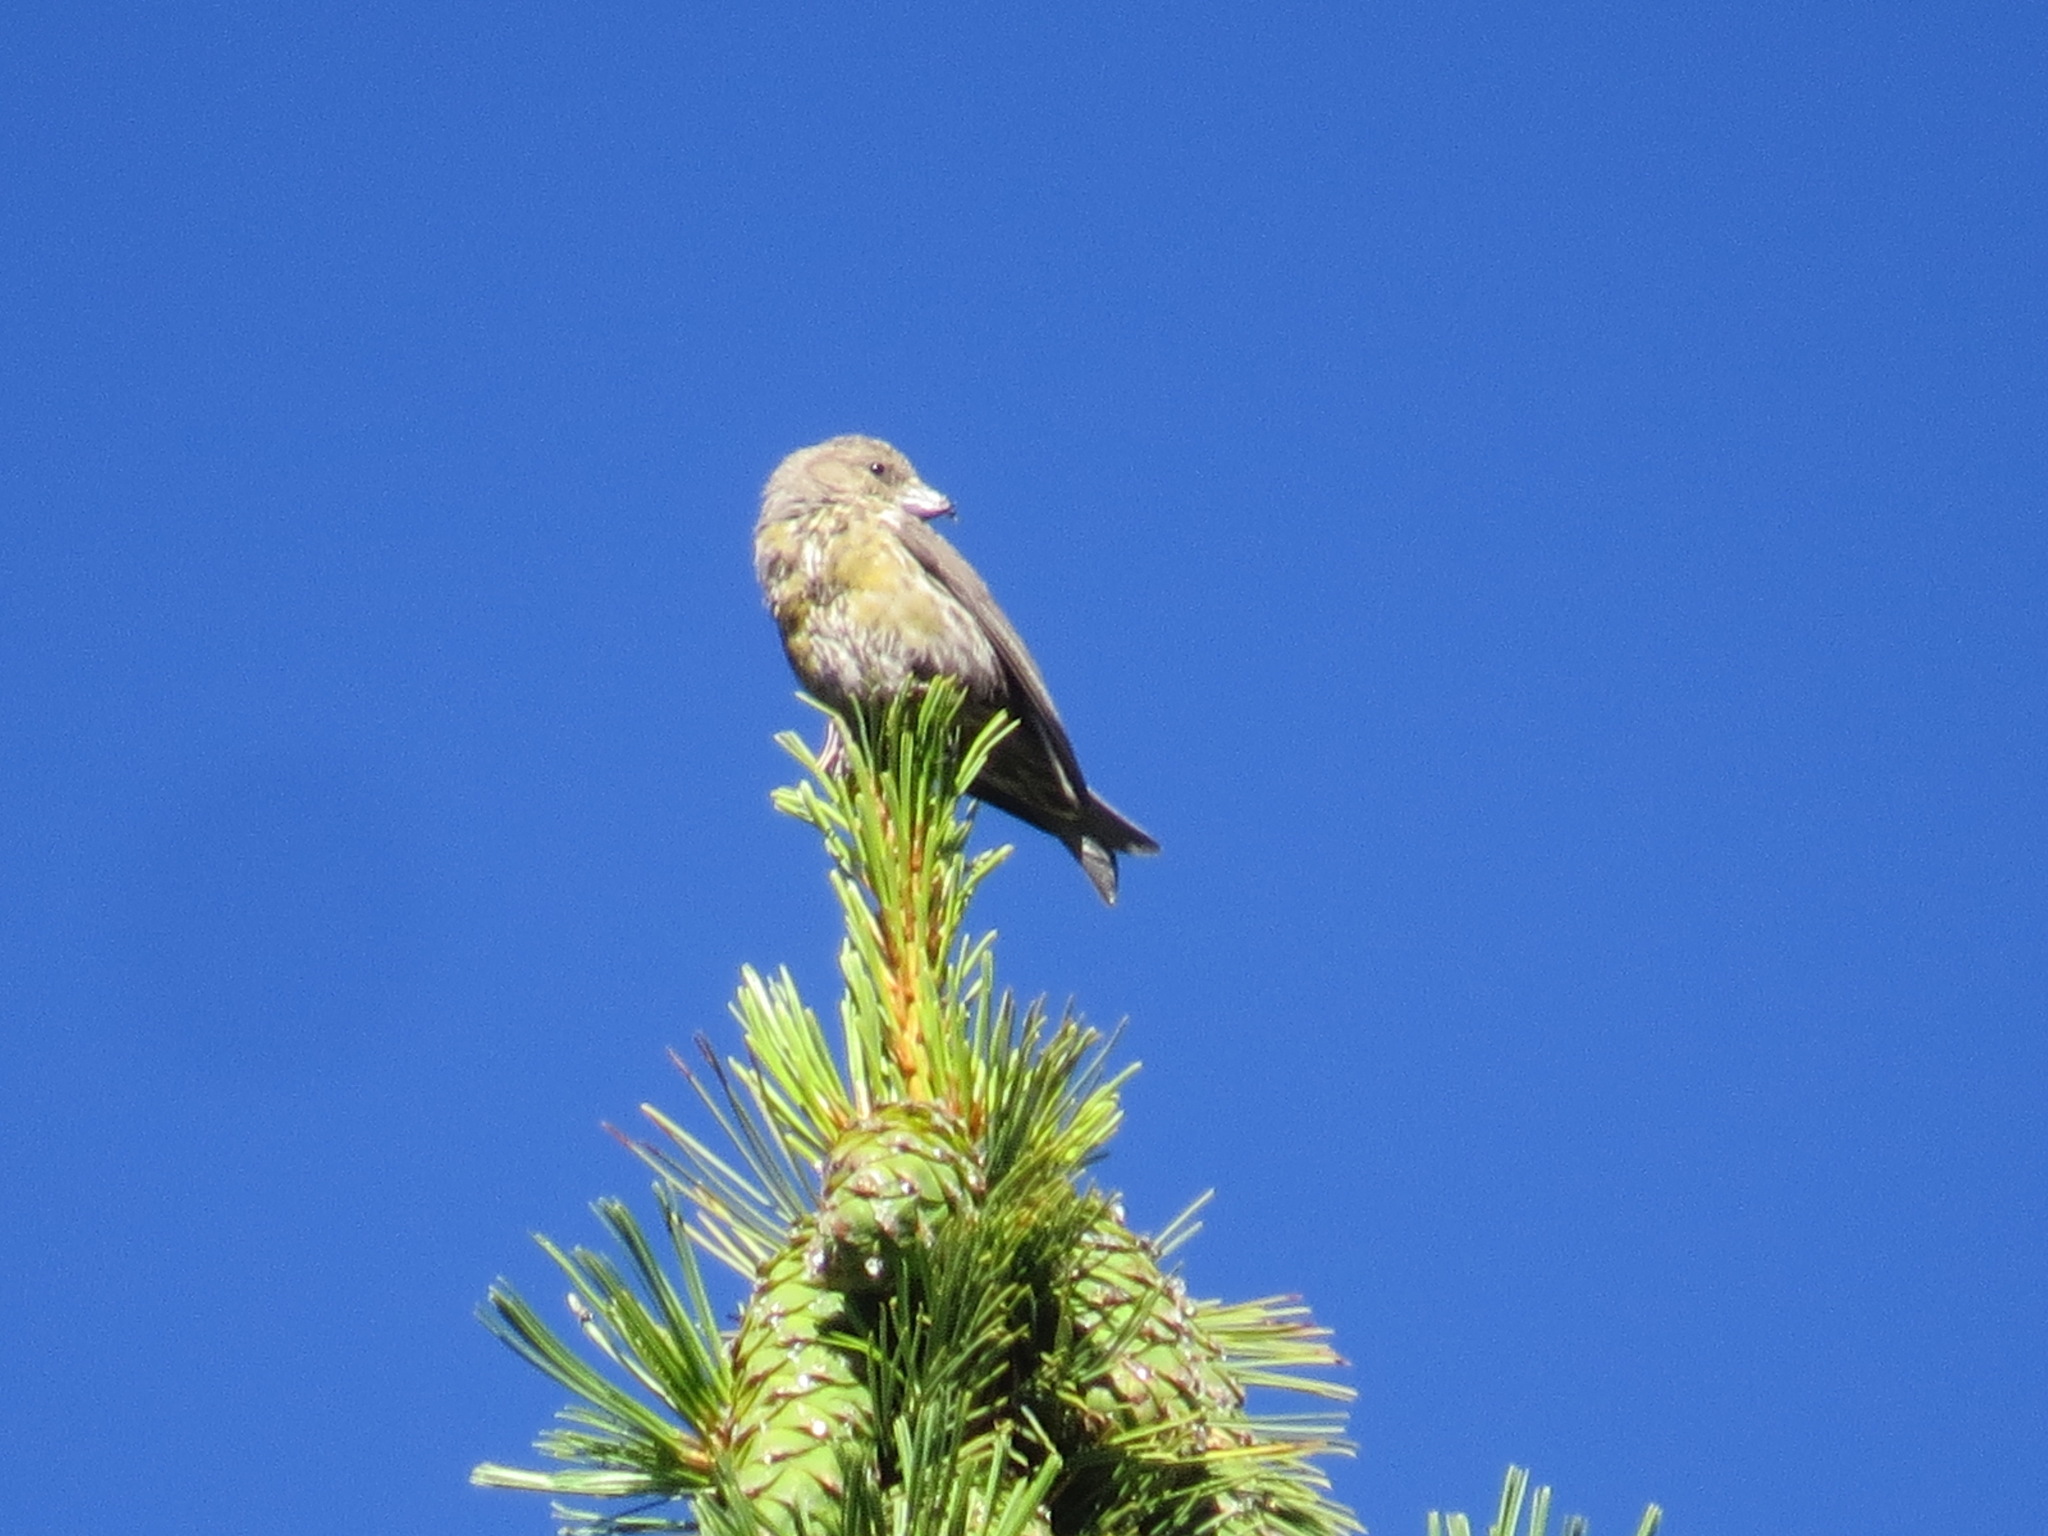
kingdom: Animalia
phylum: Chordata
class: Aves
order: Passeriformes
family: Fringillidae
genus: Loxia
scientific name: Loxia curvirostra
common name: Red crossbill
